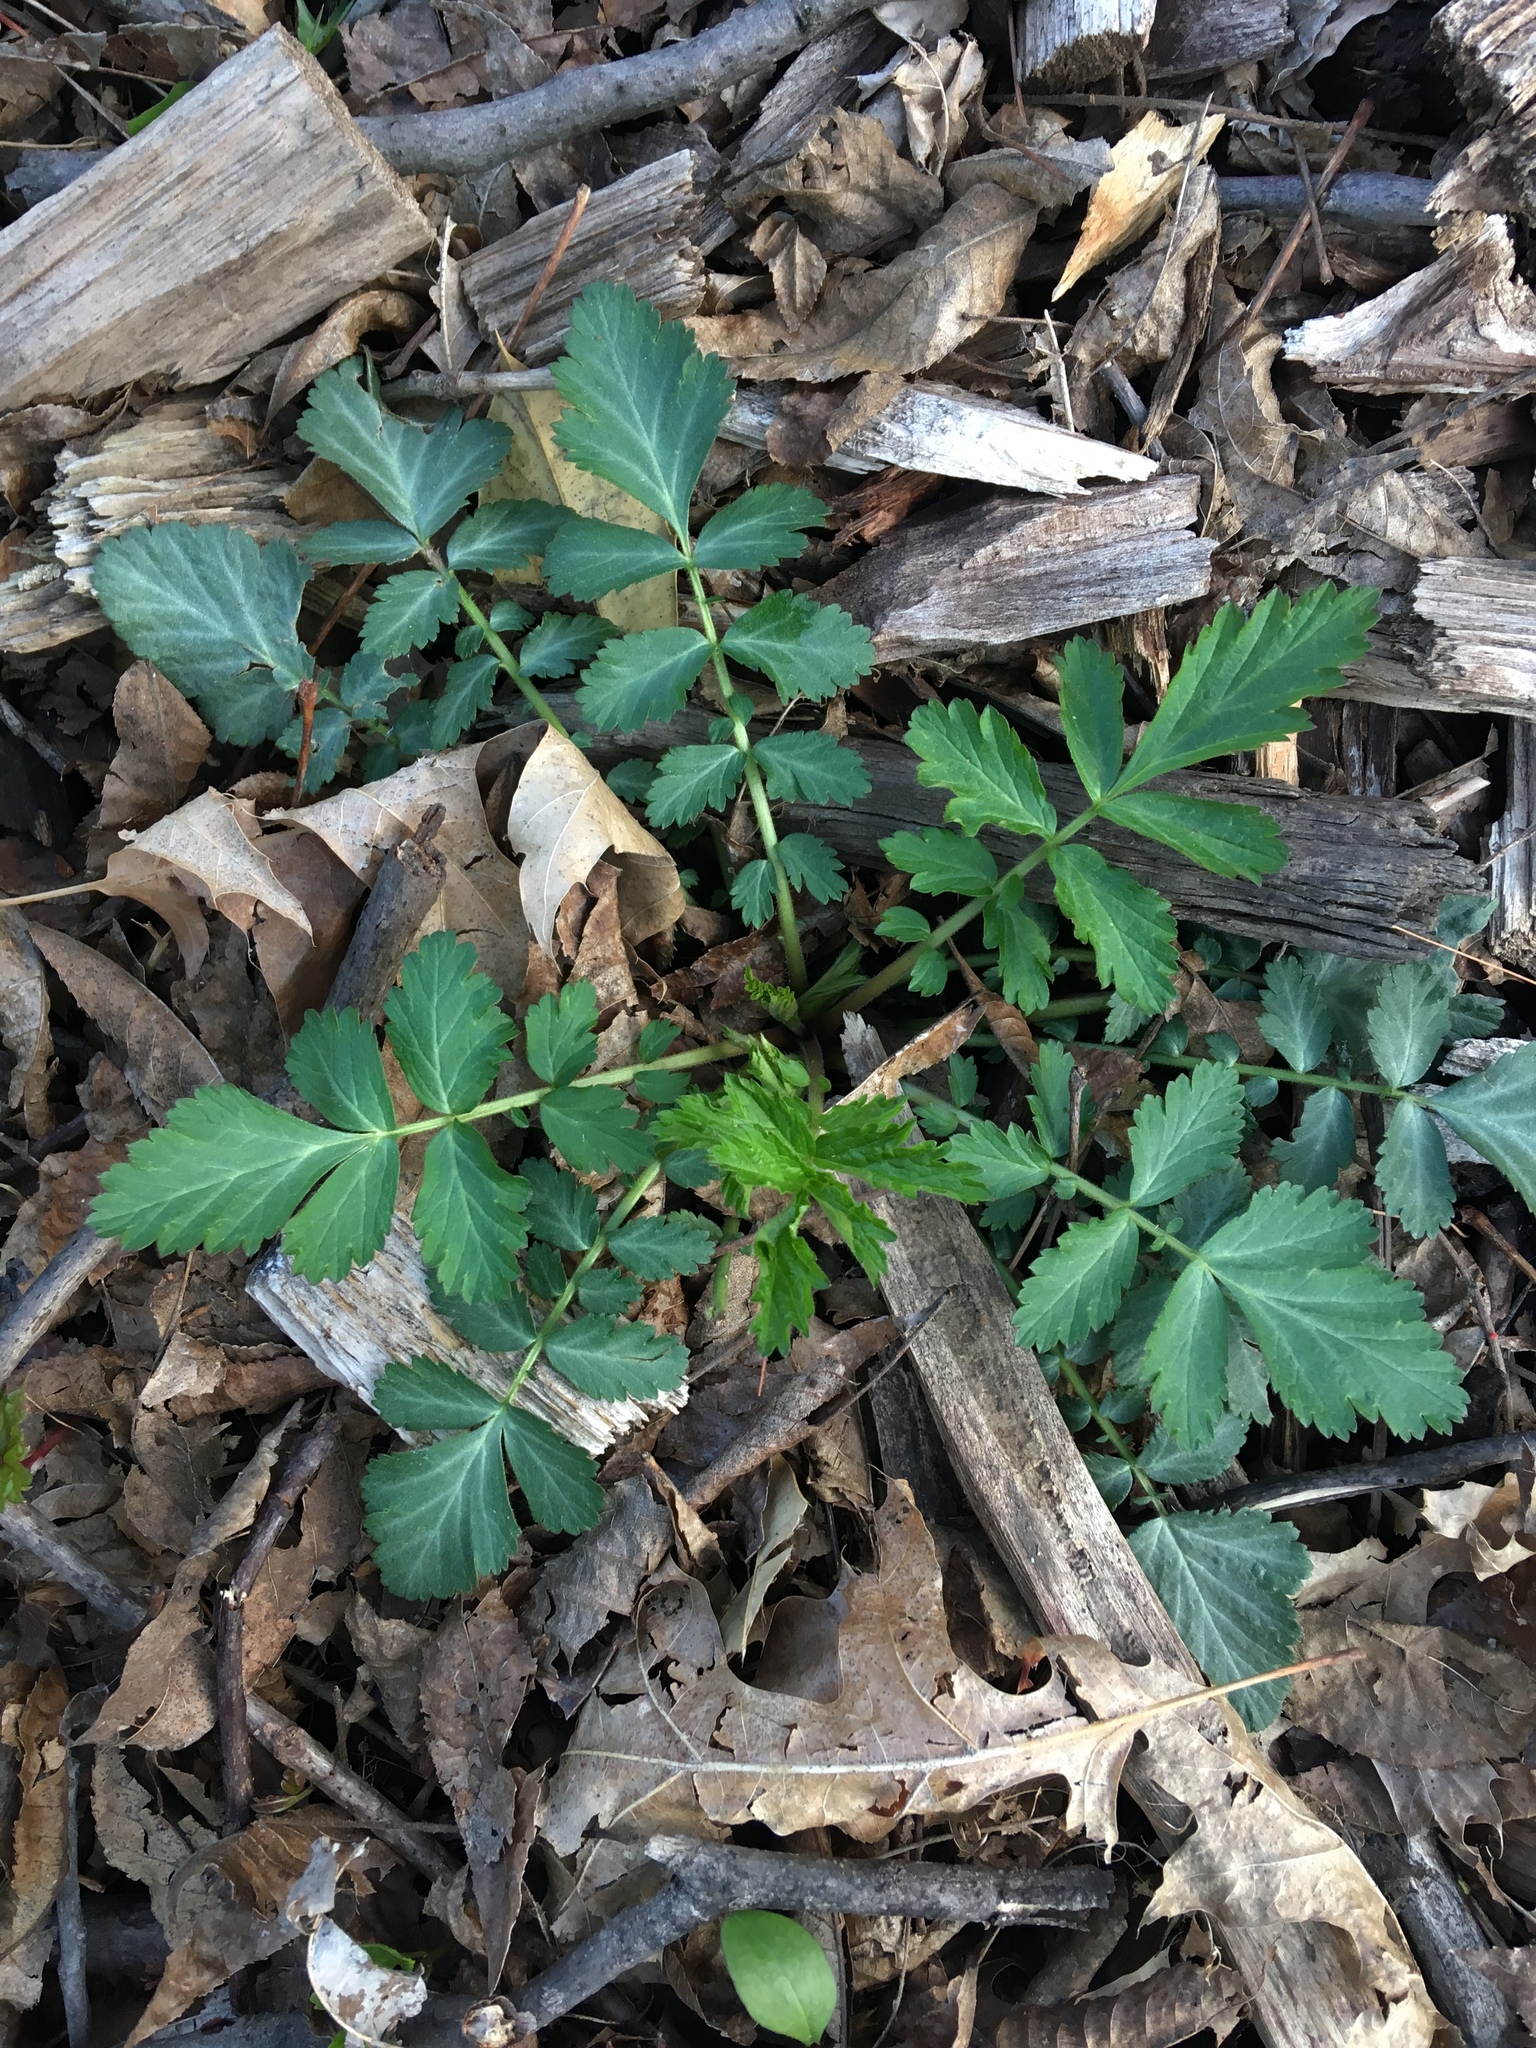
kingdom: Plantae
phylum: Tracheophyta
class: Magnoliopsida
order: Rosales
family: Rosaceae
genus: Geum
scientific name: Geum canadense
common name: White avens
